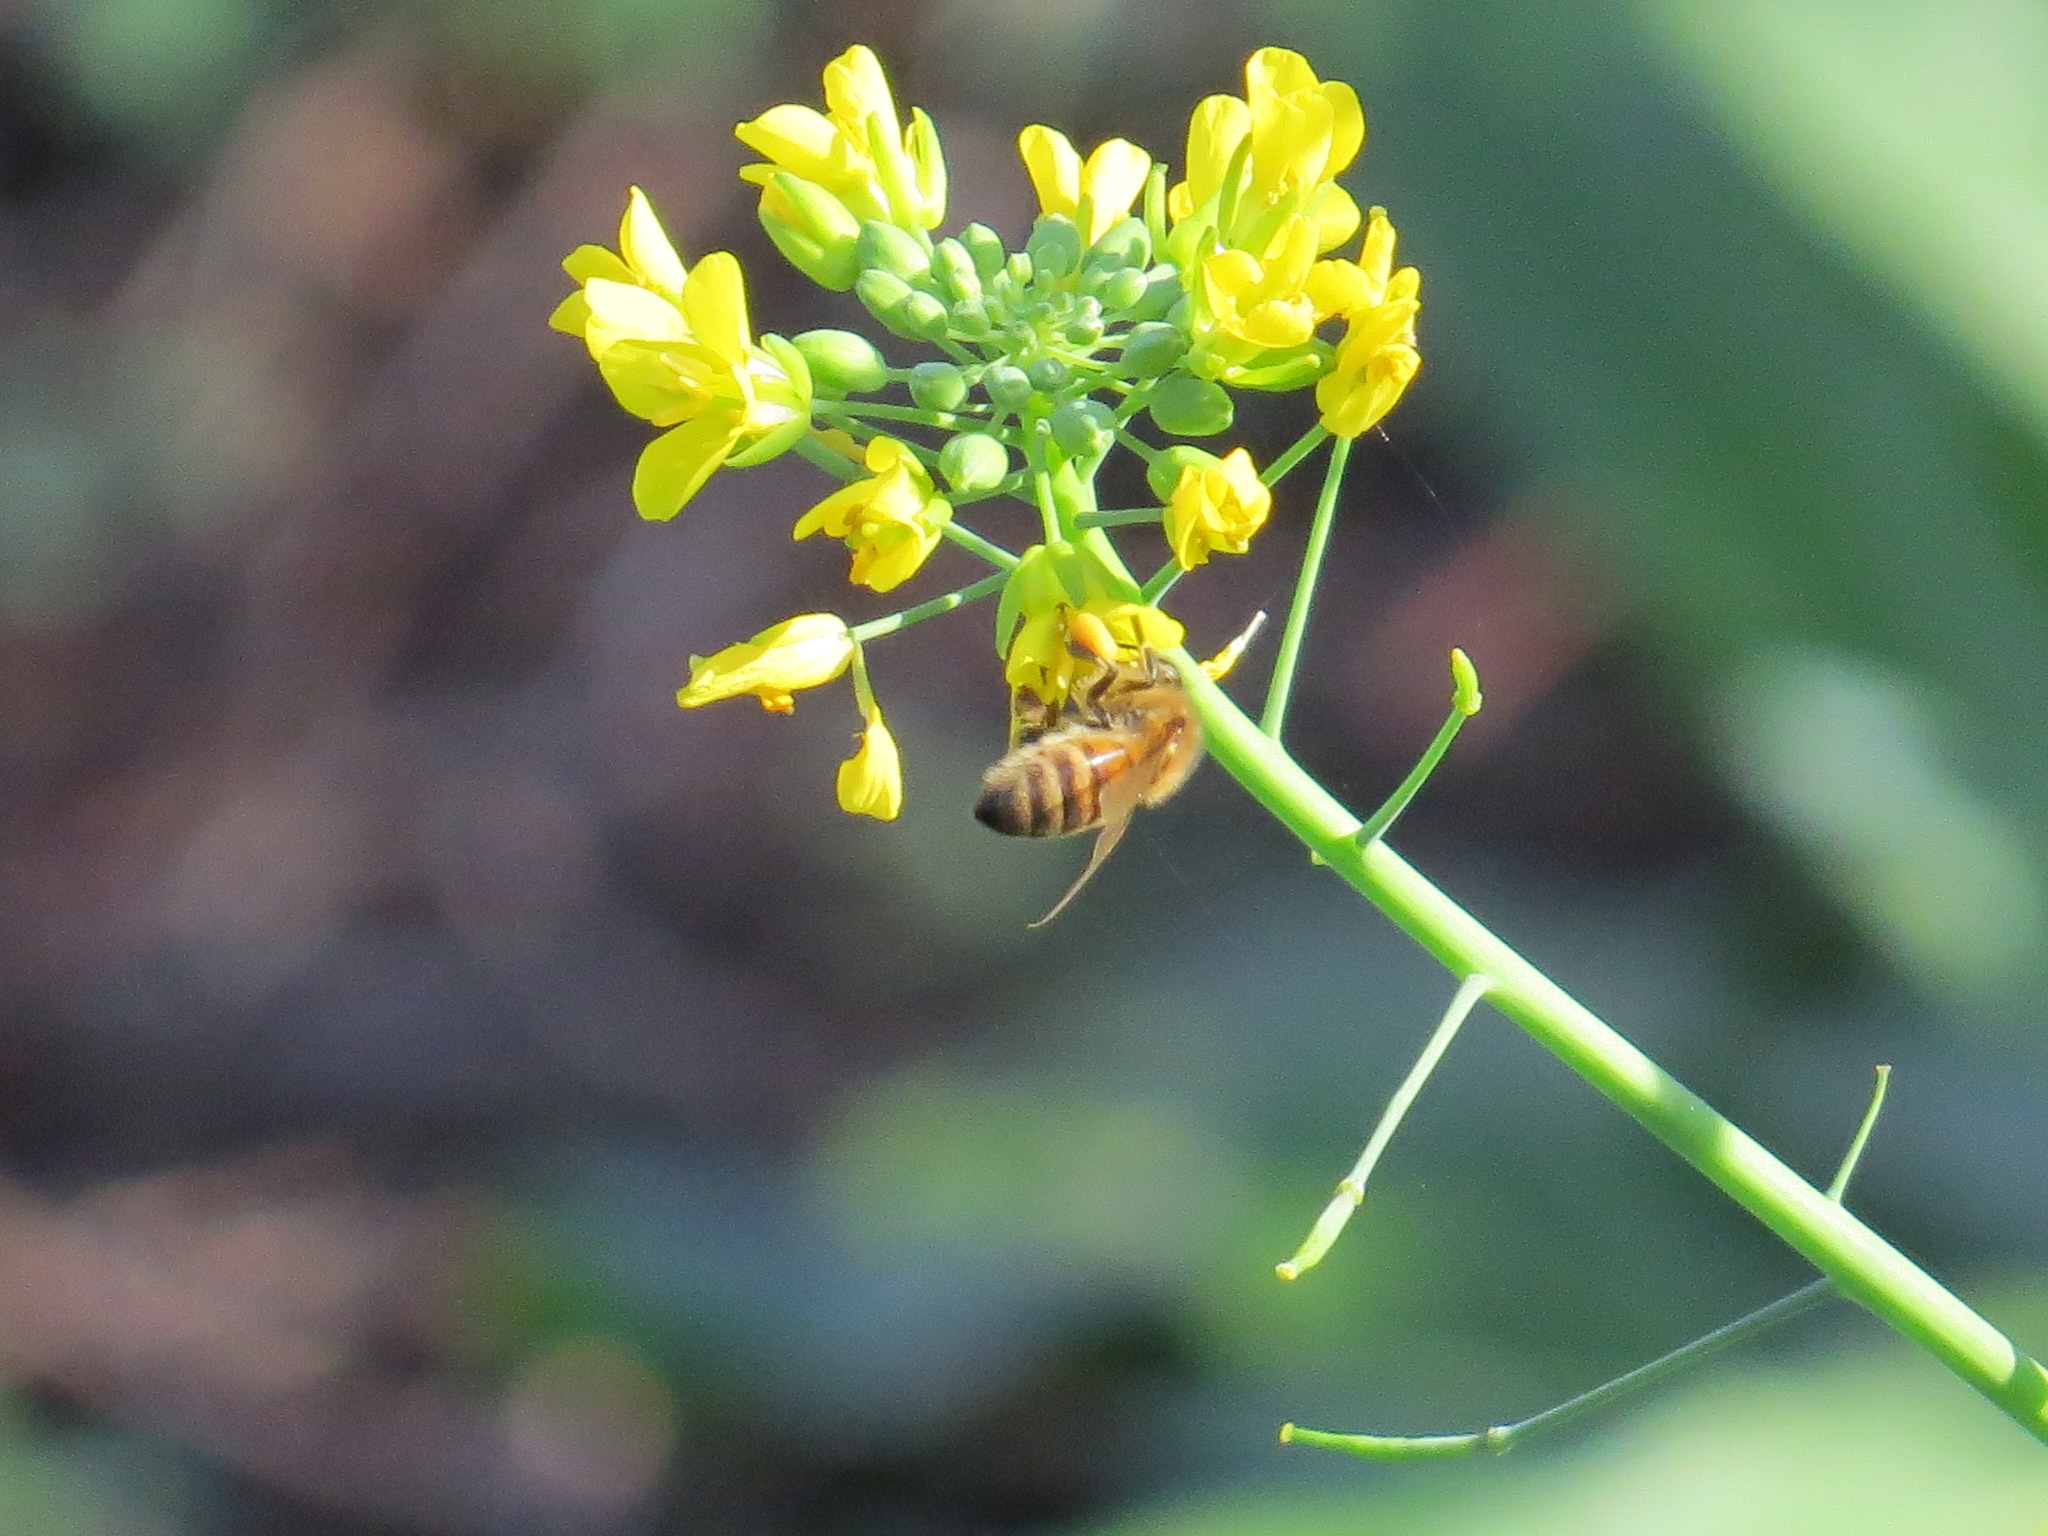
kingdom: Animalia
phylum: Arthropoda
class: Insecta
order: Hymenoptera
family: Apidae
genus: Apis
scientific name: Apis mellifera
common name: Honey bee
